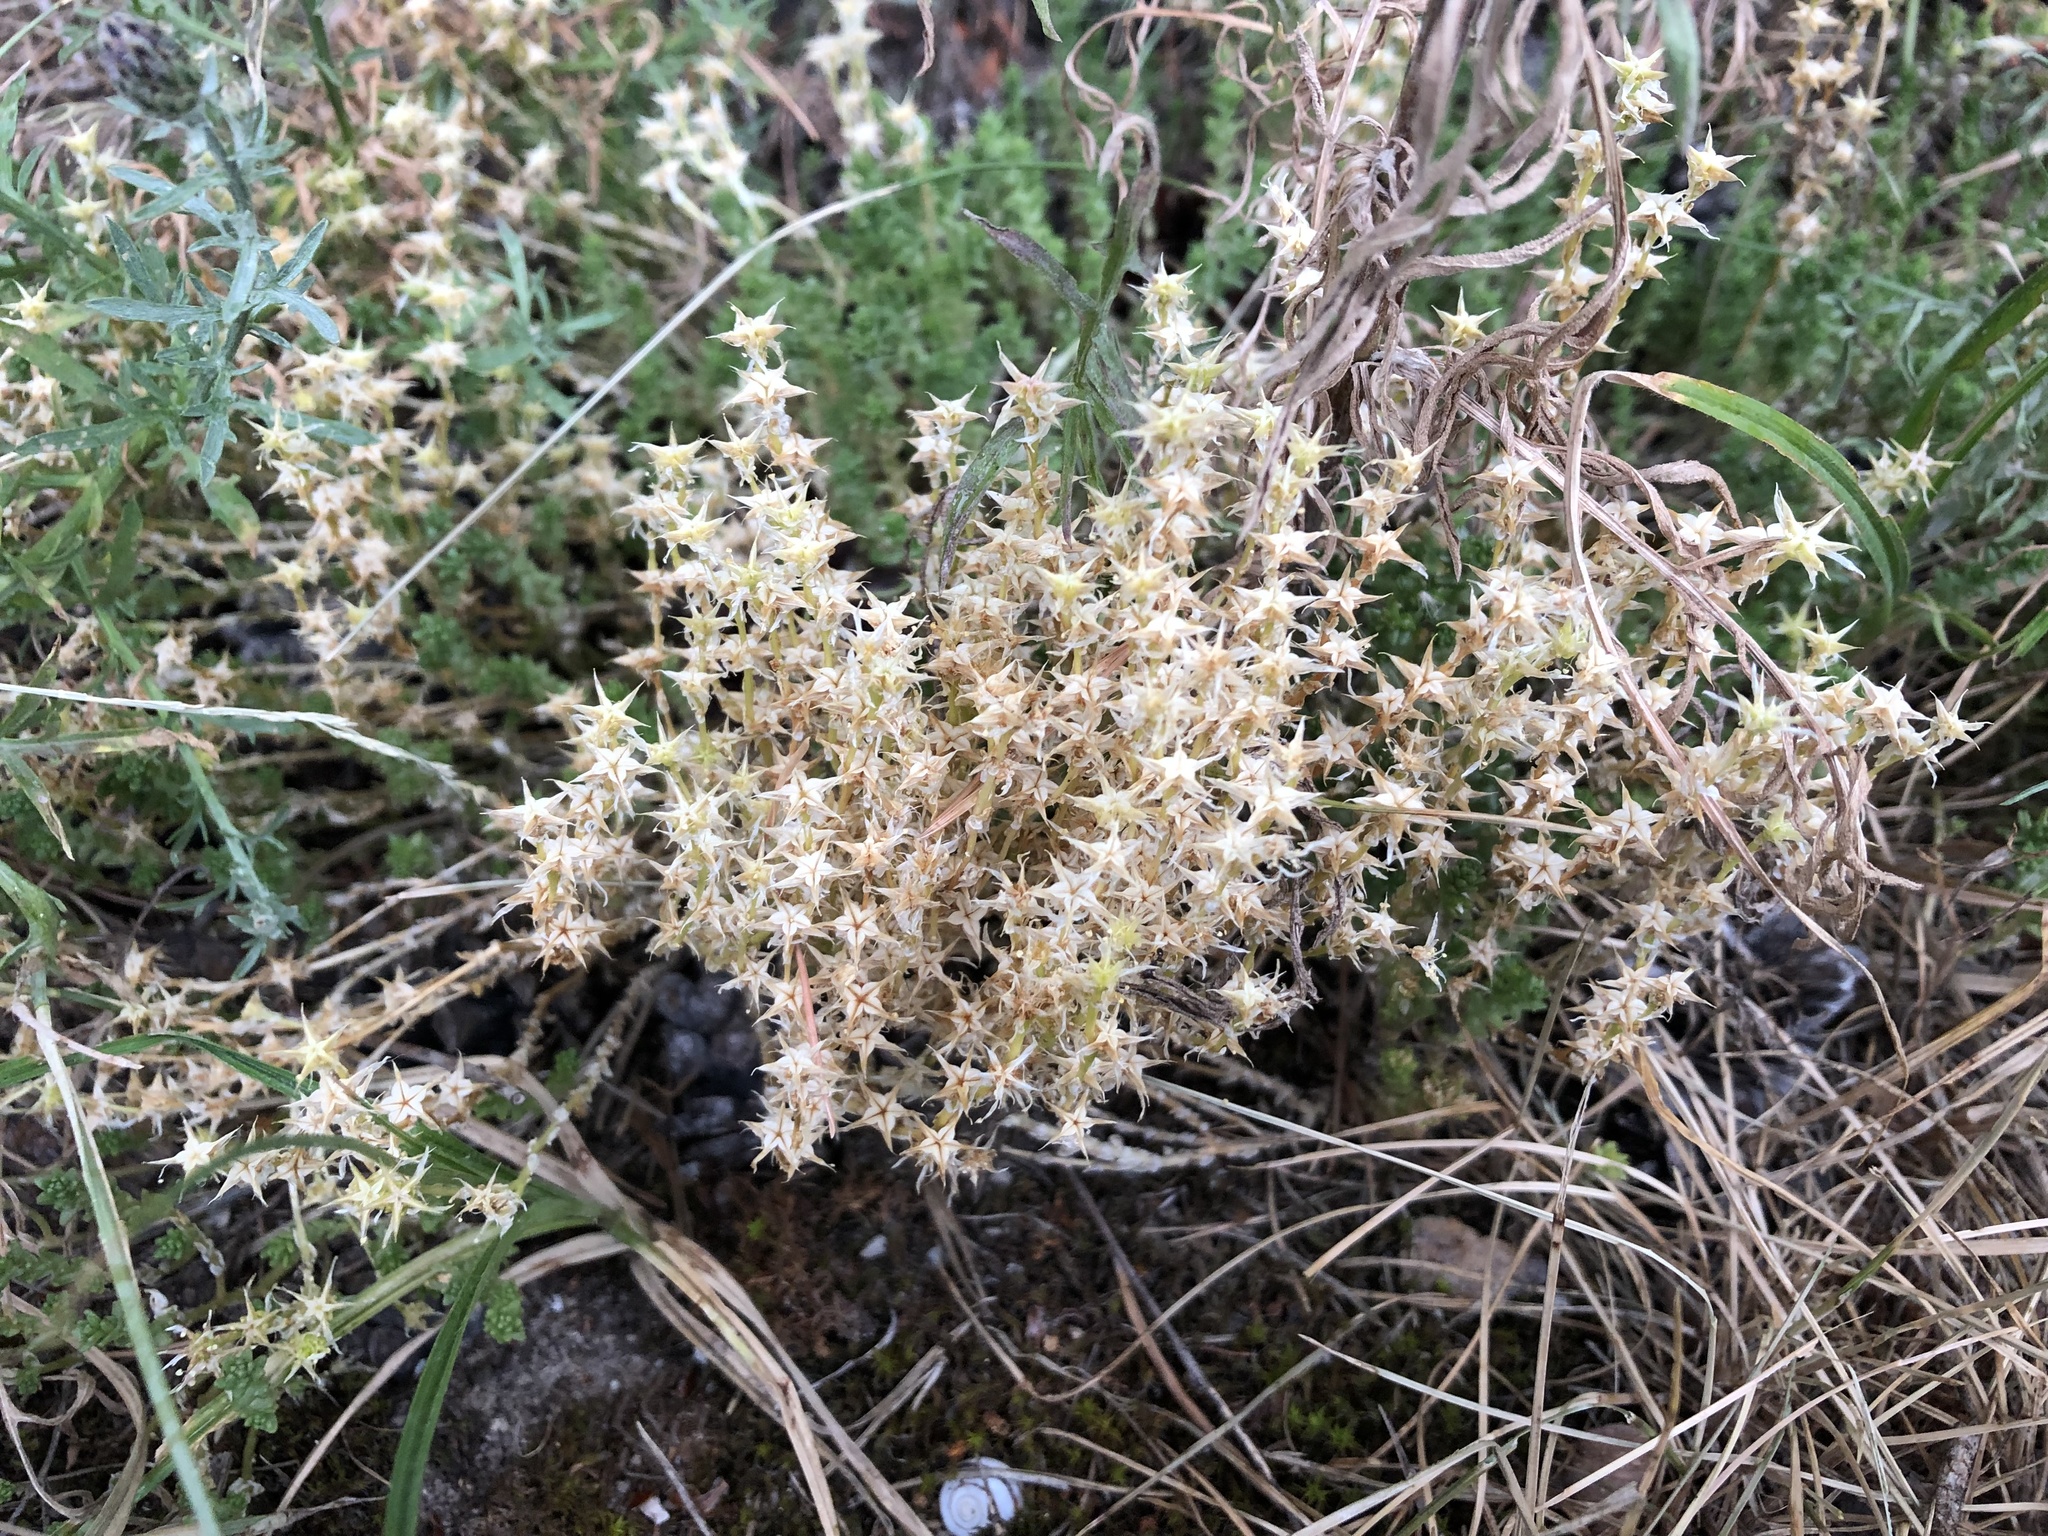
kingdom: Plantae
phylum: Tracheophyta
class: Magnoliopsida
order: Saxifragales
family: Crassulaceae
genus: Sedum
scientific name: Sedum acre
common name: Biting stonecrop
